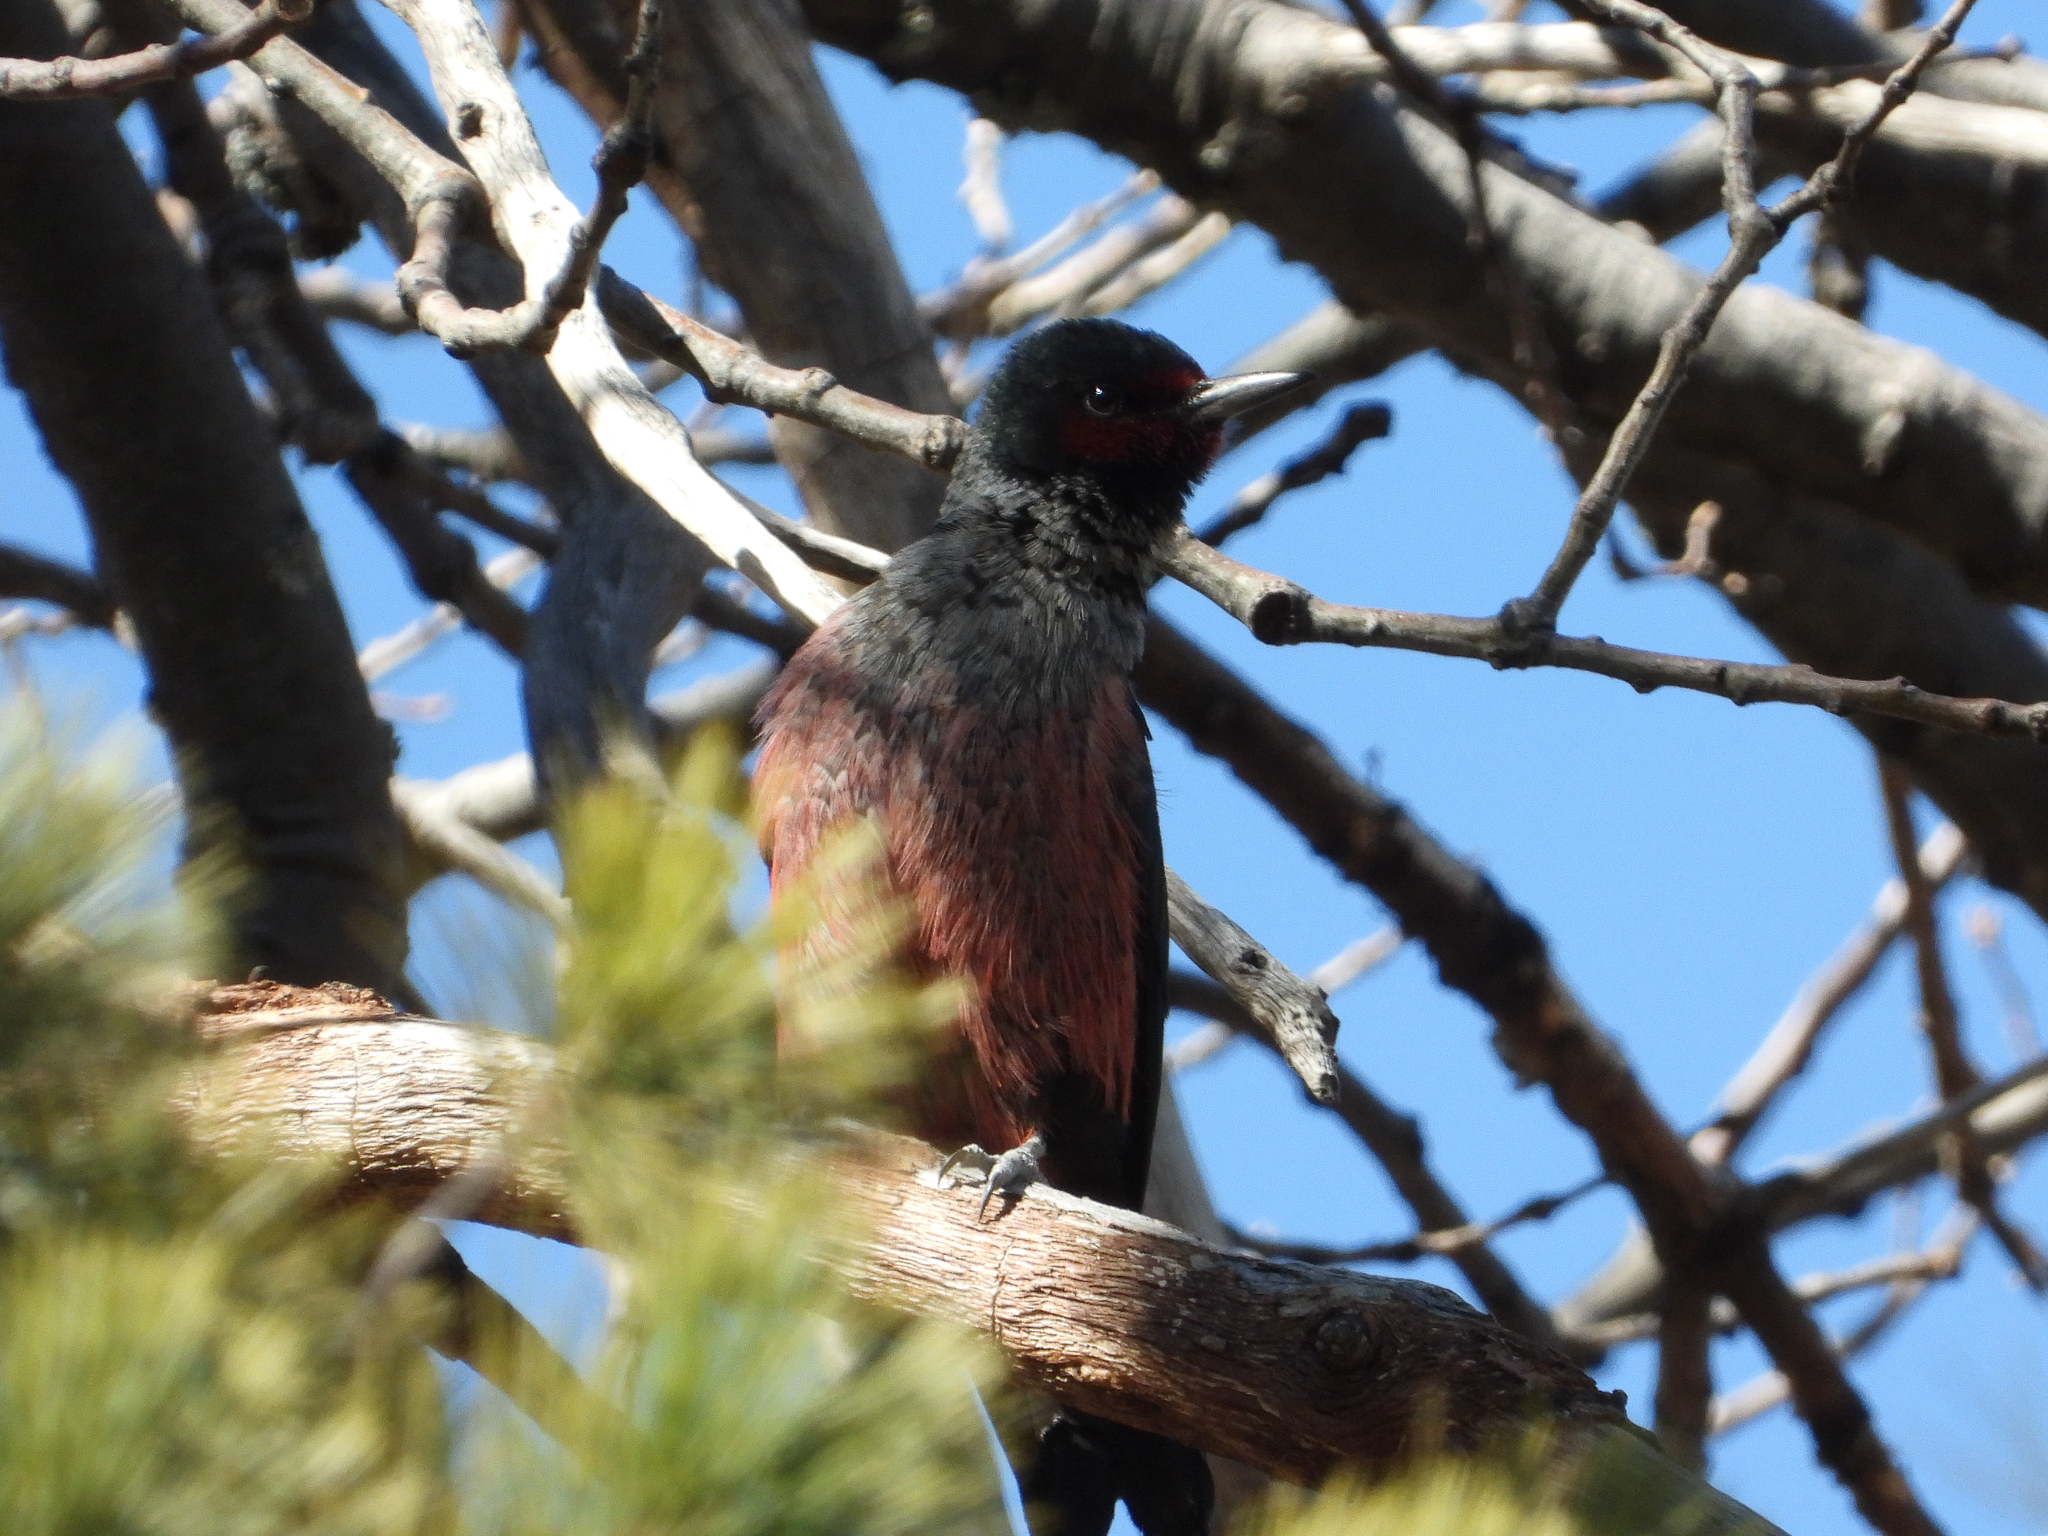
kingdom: Animalia
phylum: Chordata
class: Aves
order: Piciformes
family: Picidae
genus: Melanerpes
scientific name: Melanerpes lewis
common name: Lewis's woodpecker
